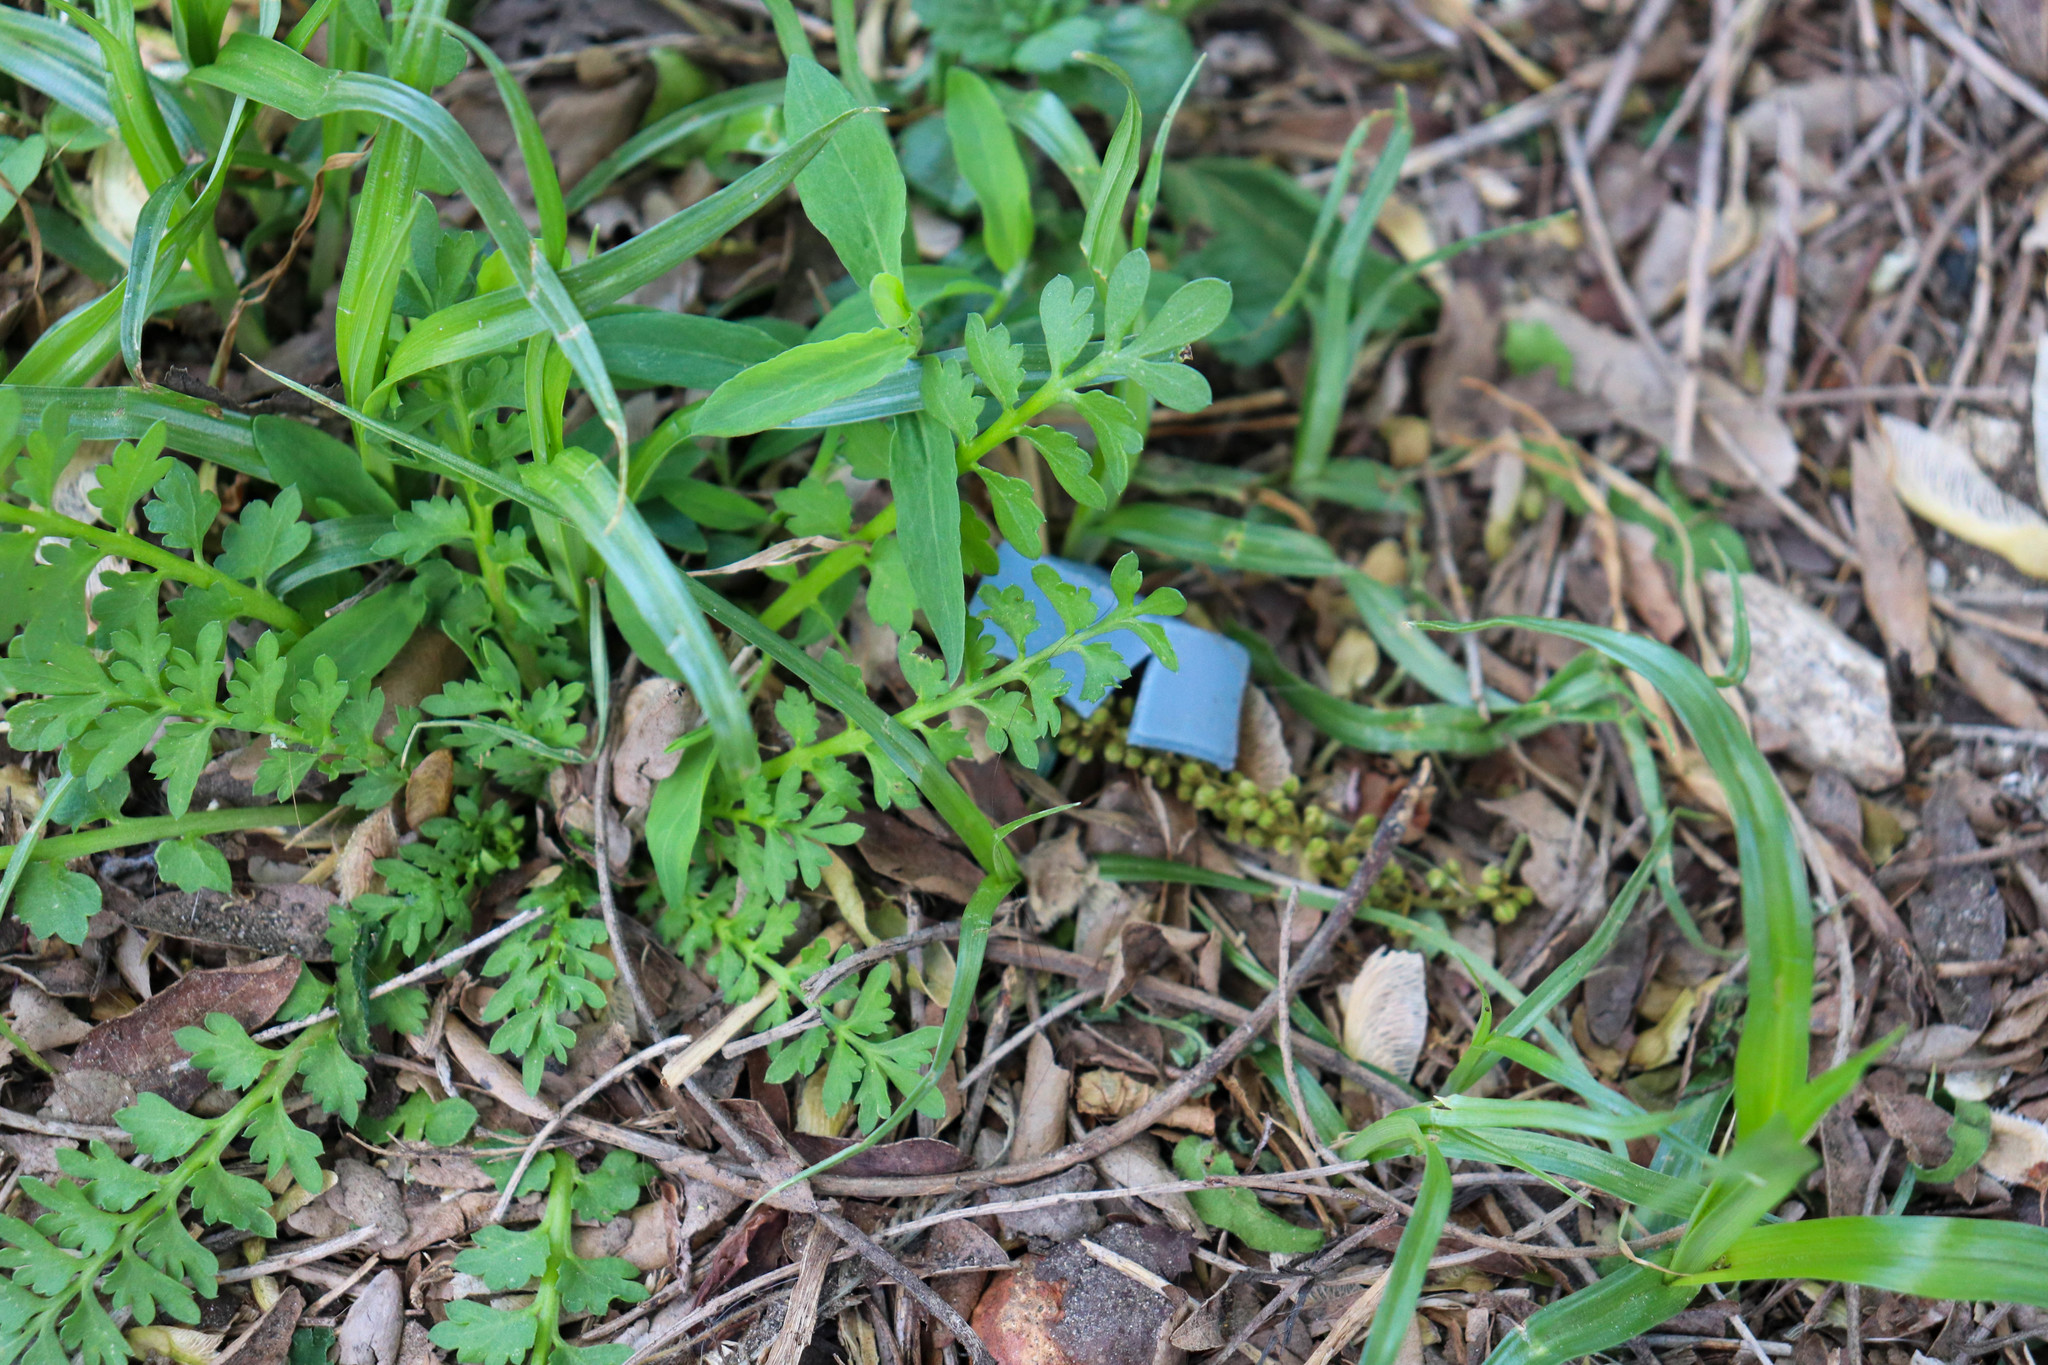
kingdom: Plantae
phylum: Tracheophyta
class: Magnoliopsida
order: Brassicales
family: Brassicaceae
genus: Lepidium
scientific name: Lepidium didymum
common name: Lesser swinecress
